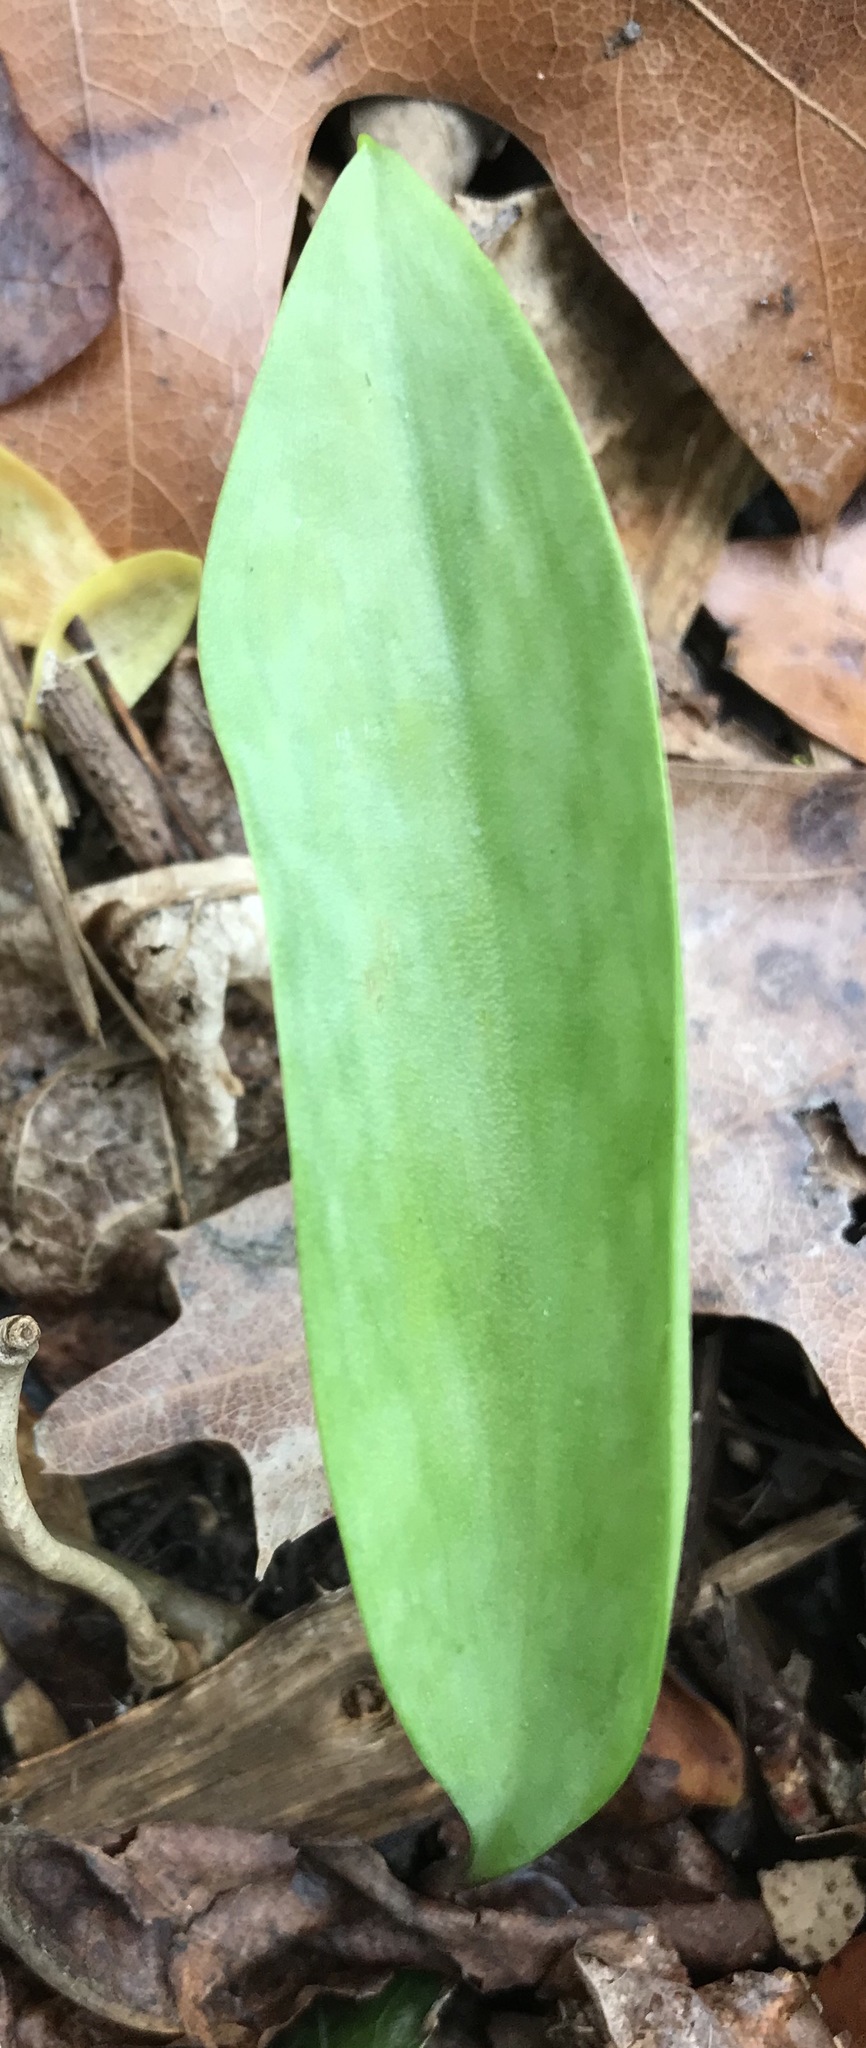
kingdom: Plantae
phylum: Tracheophyta
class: Liliopsida
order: Liliales
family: Liliaceae
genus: Erythronium
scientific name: Erythronium americanum
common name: Yellow adder's-tongue
